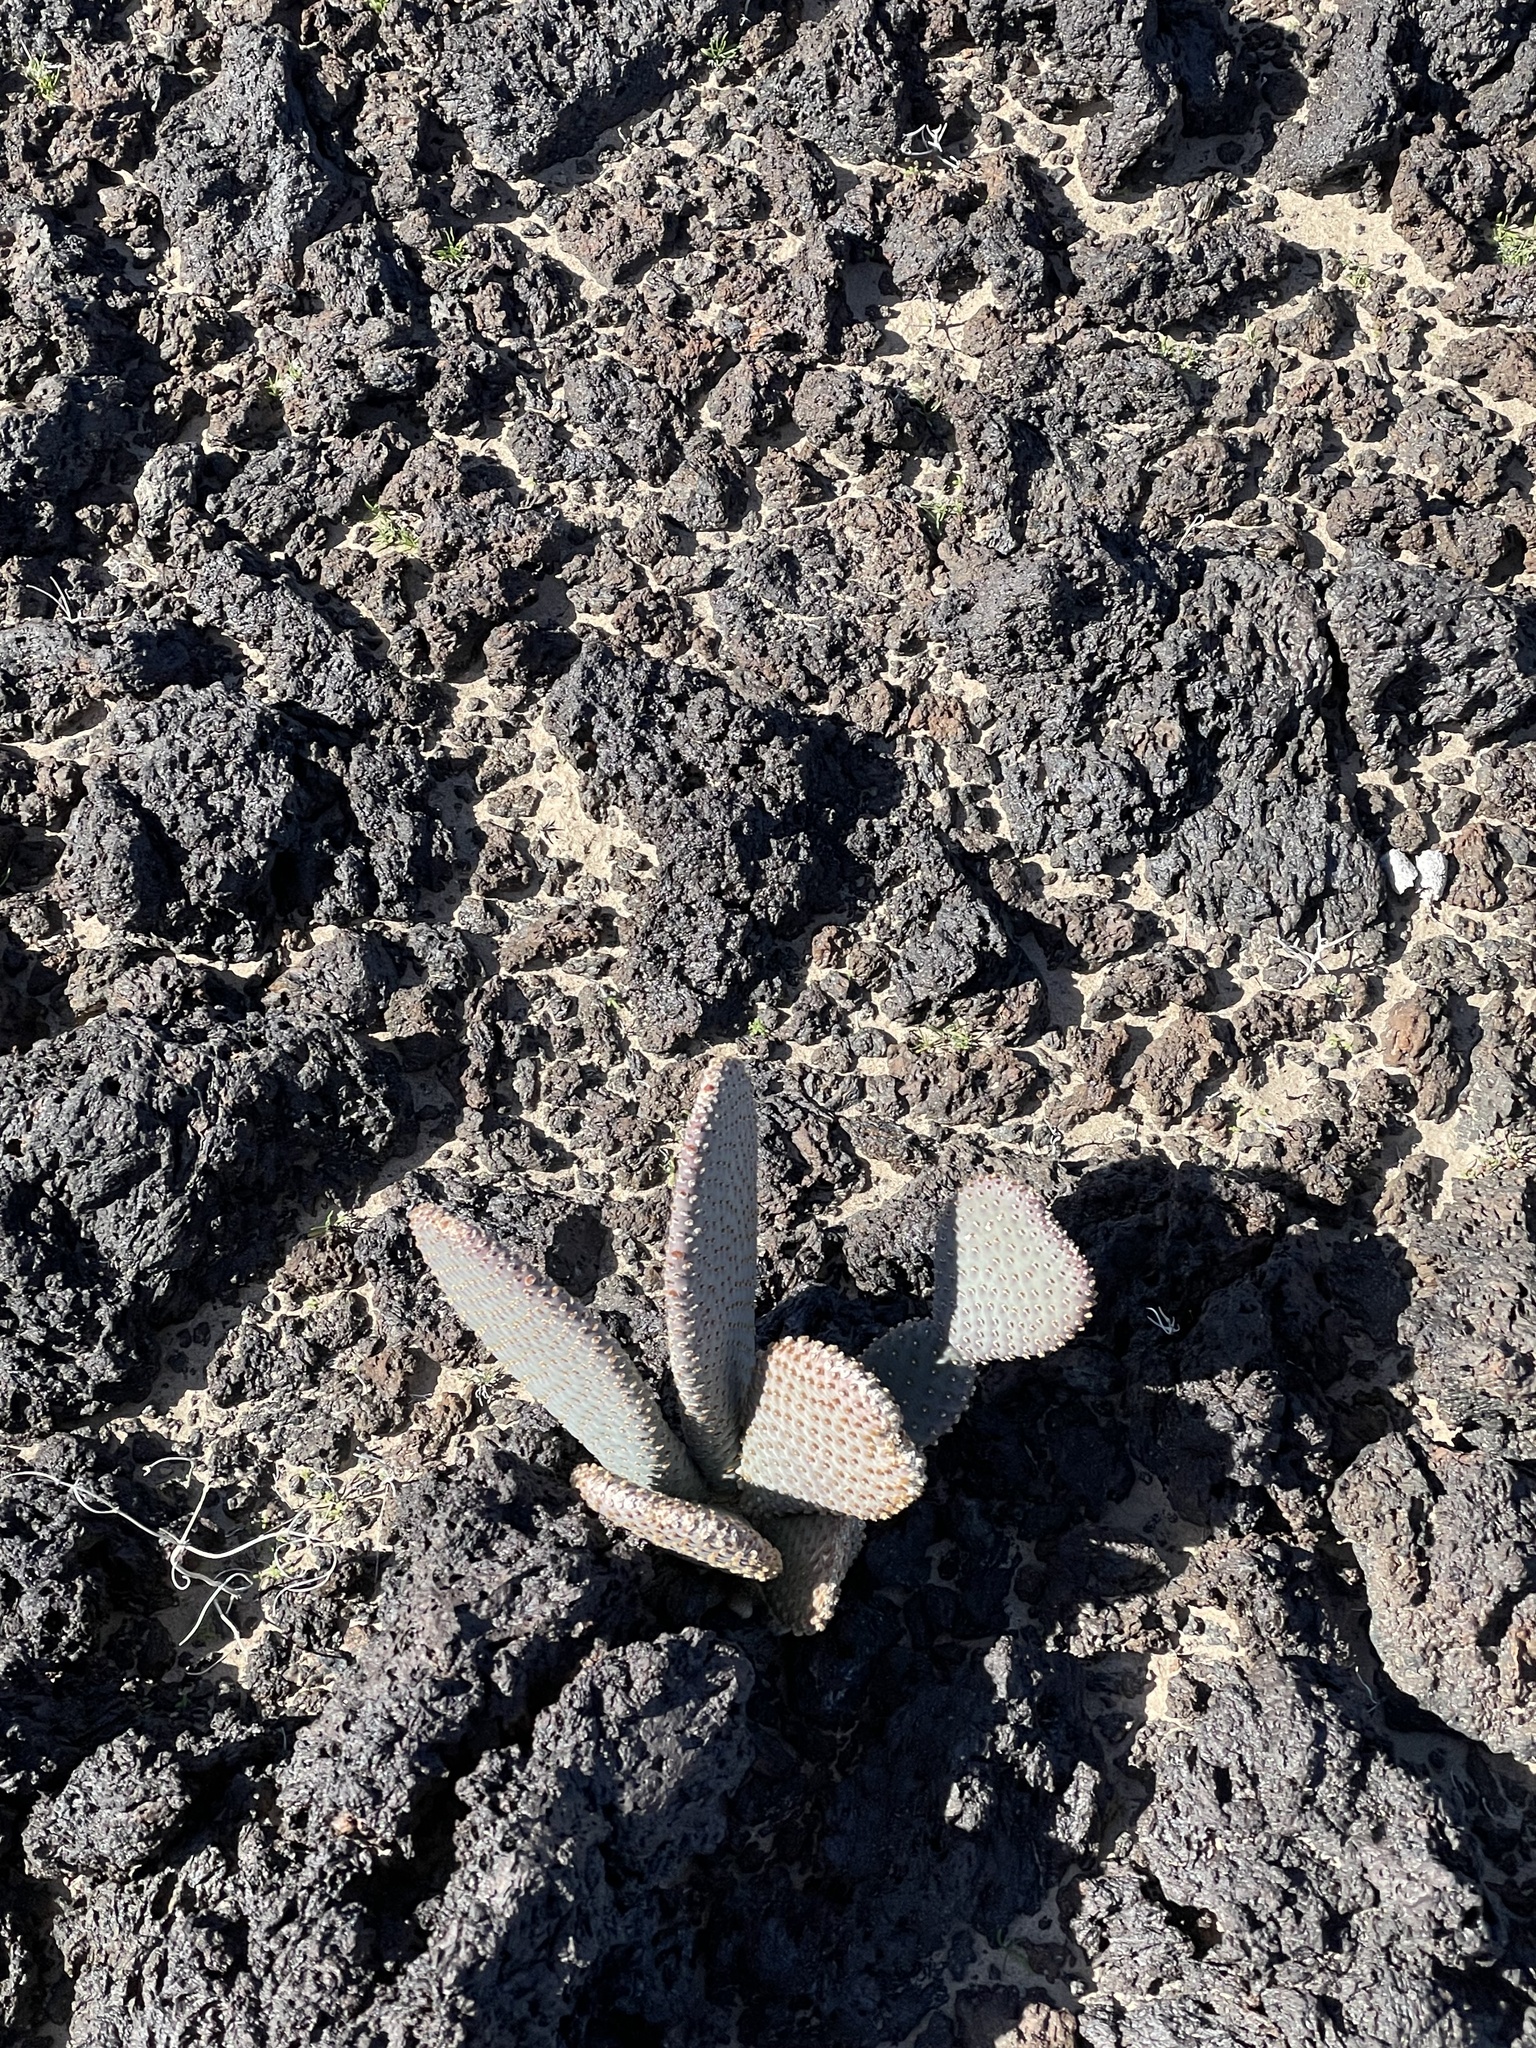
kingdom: Plantae
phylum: Tracheophyta
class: Magnoliopsida
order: Caryophyllales
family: Cactaceae
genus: Opuntia
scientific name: Opuntia basilaris
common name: Beavertail prickly-pear
